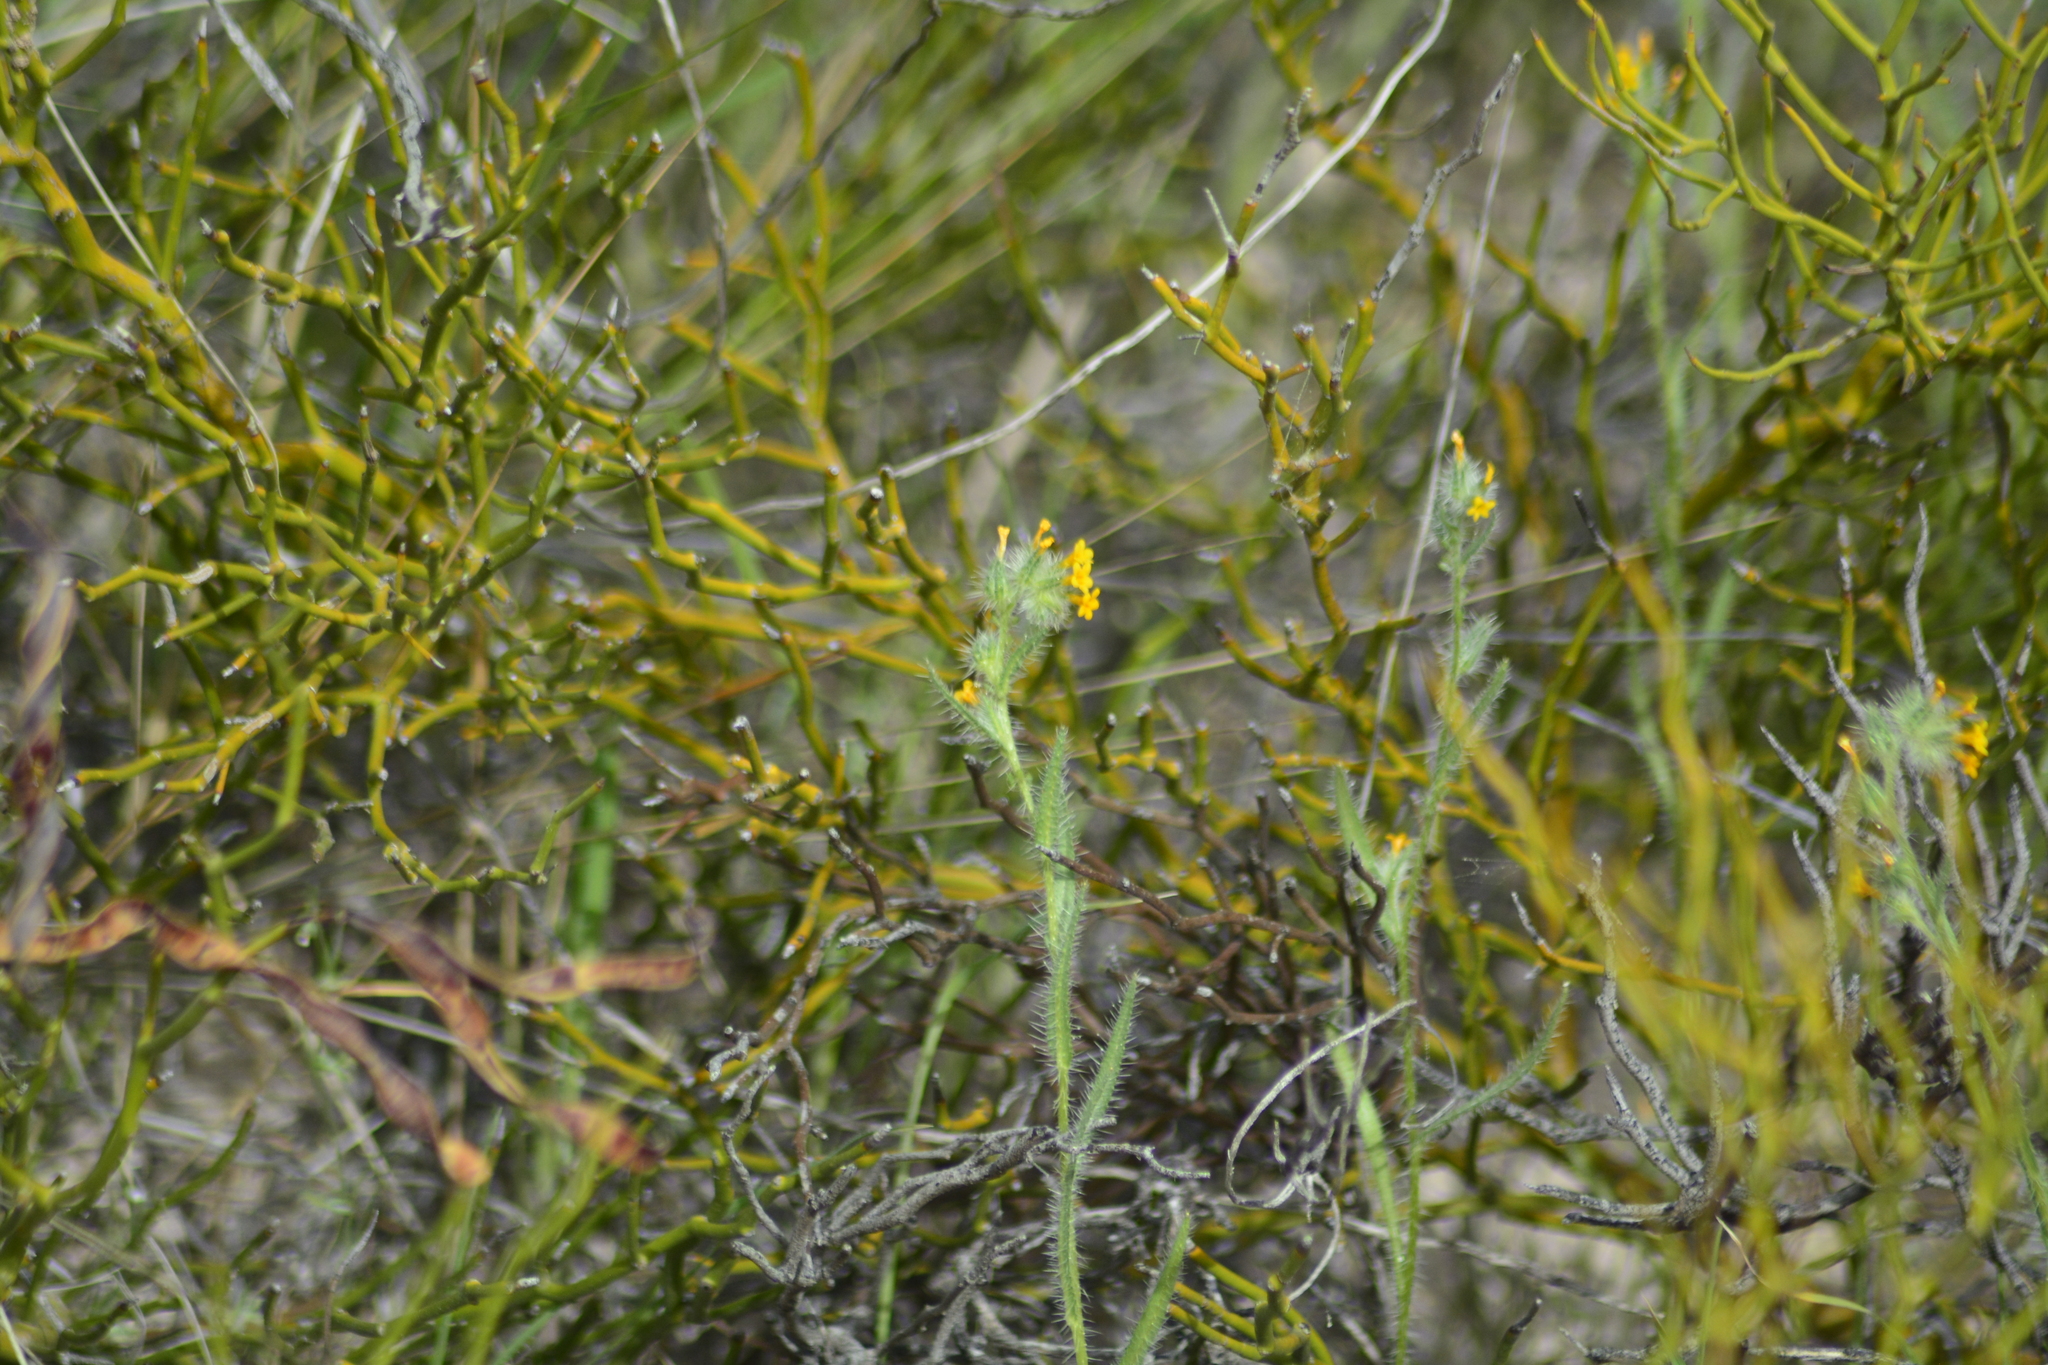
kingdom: Plantae
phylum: Tracheophyta
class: Magnoliopsida
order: Boraginales
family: Boraginaceae
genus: Amsinckia
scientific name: Amsinckia calycina
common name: Hairy fiddleneck
